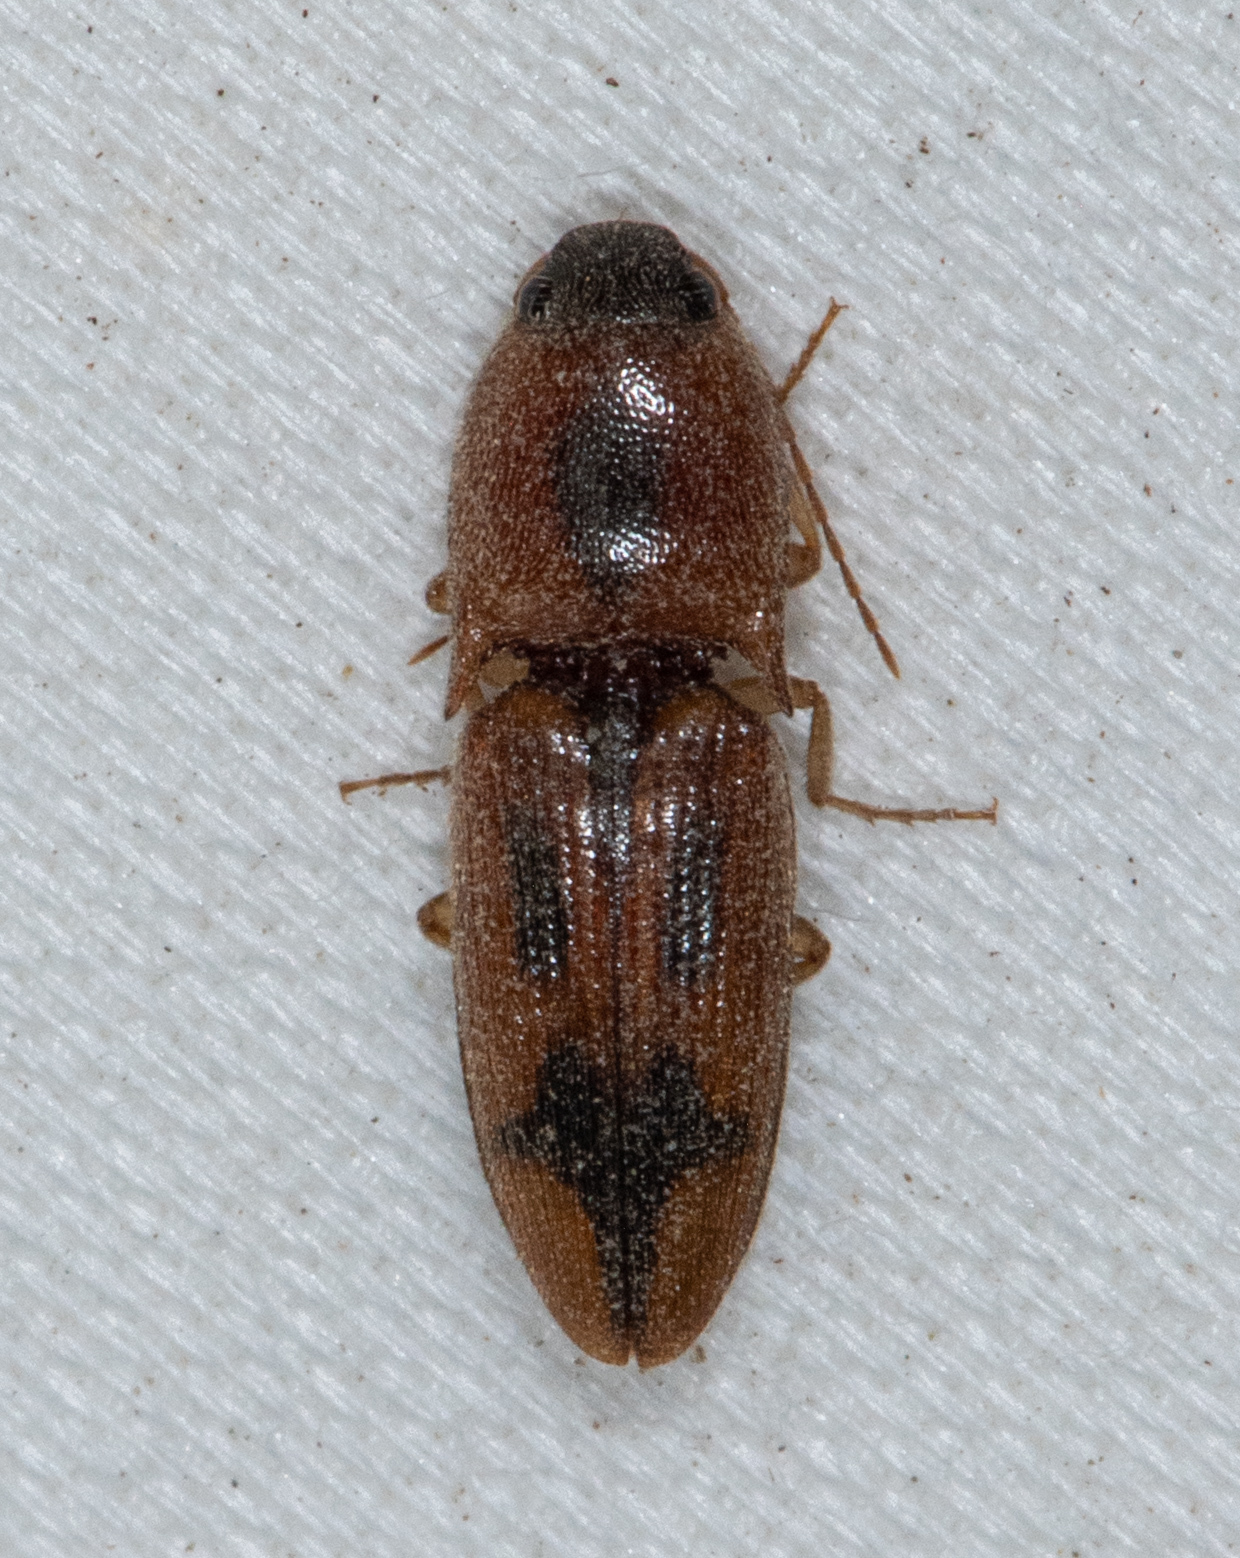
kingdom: Animalia
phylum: Arthropoda
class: Insecta
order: Coleoptera
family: Elateridae
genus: Aeolus
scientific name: Aeolus
